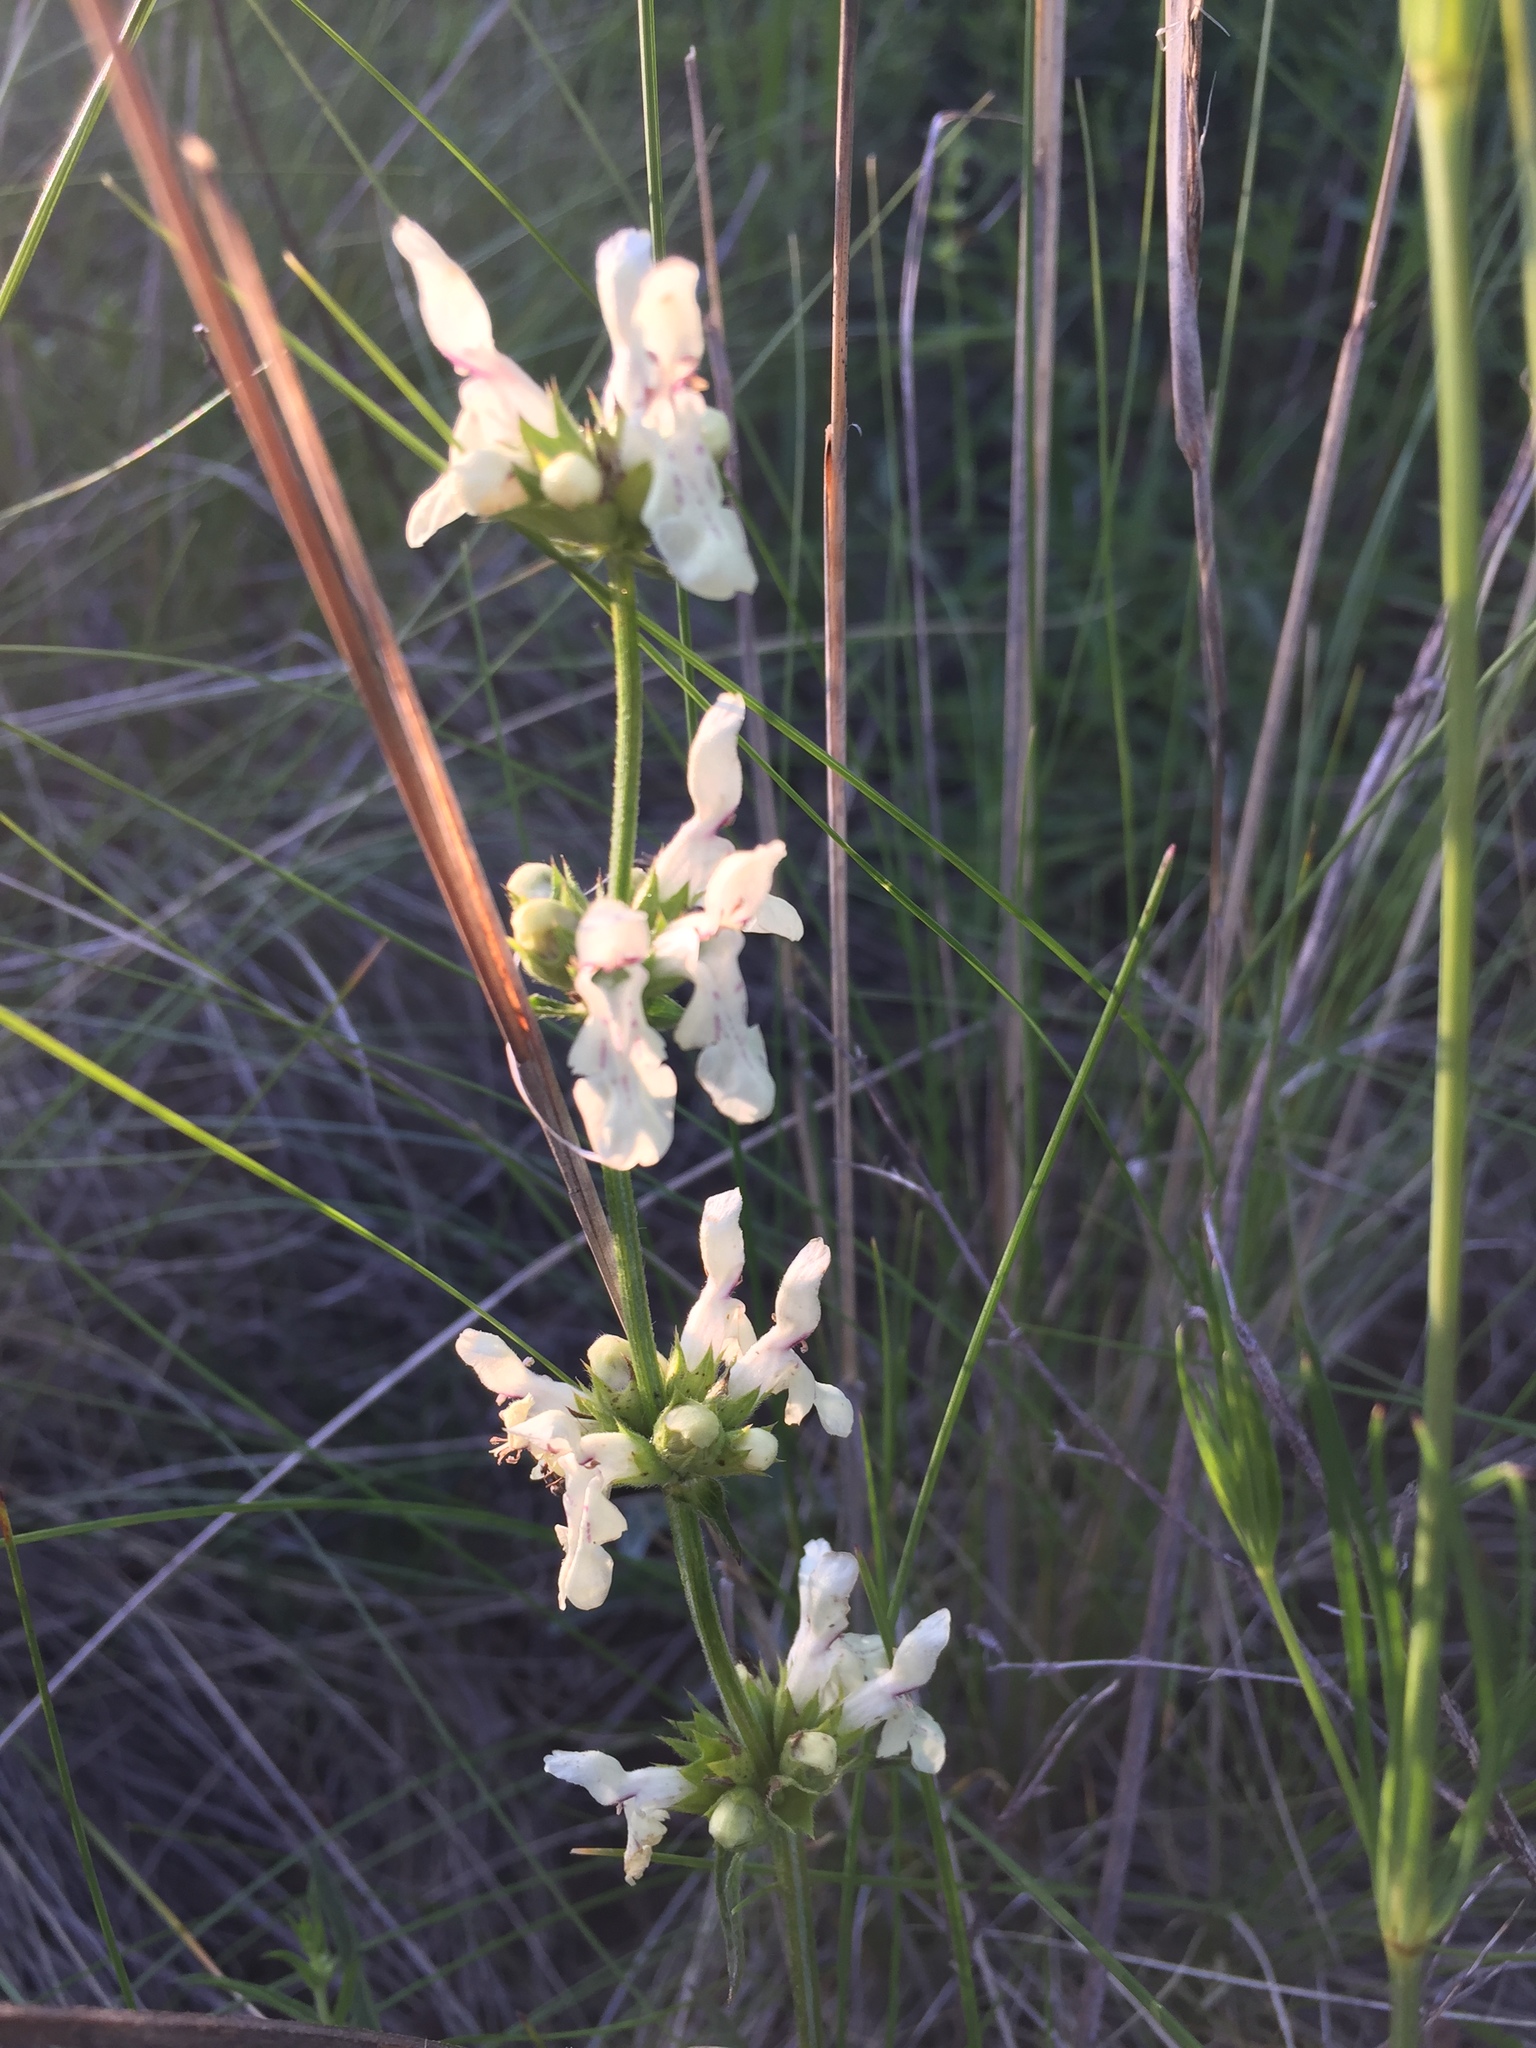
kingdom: Plantae
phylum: Tracheophyta
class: Magnoliopsida
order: Lamiales
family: Lamiaceae
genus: Stachys
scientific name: Stachys recta
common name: Perennial yellow-woundwort
